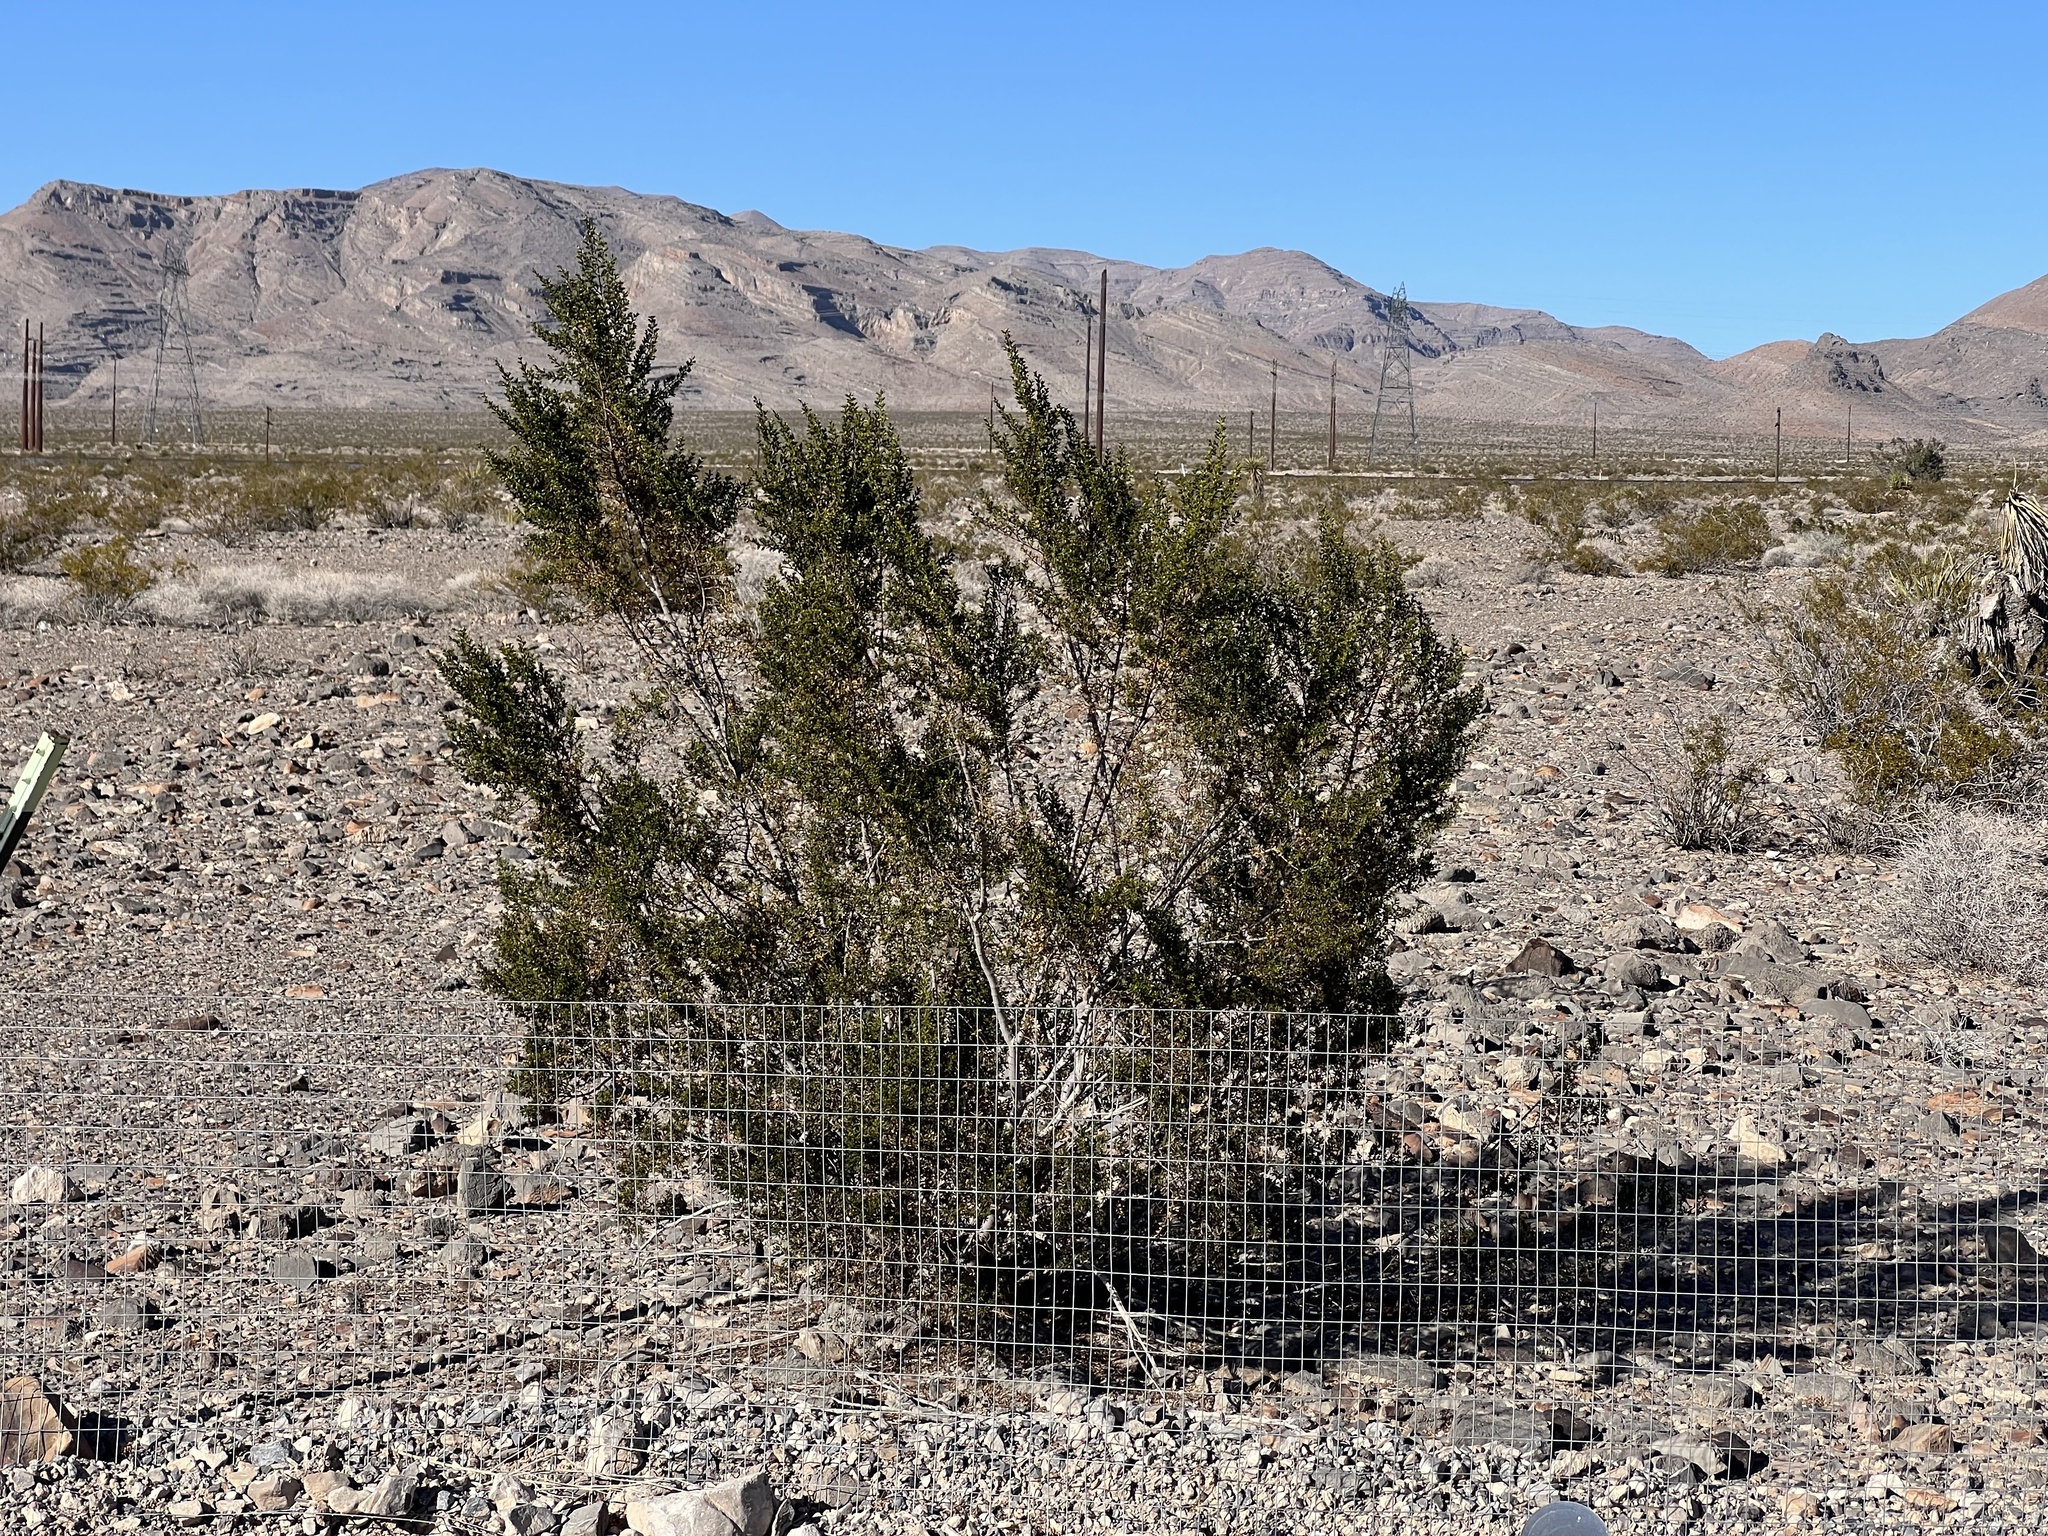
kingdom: Plantae
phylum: Tracheophyta
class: Magnoliopsida
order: Zygophyllales
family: Zygophyllaceae
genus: Larrea
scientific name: Larrea tridentata
